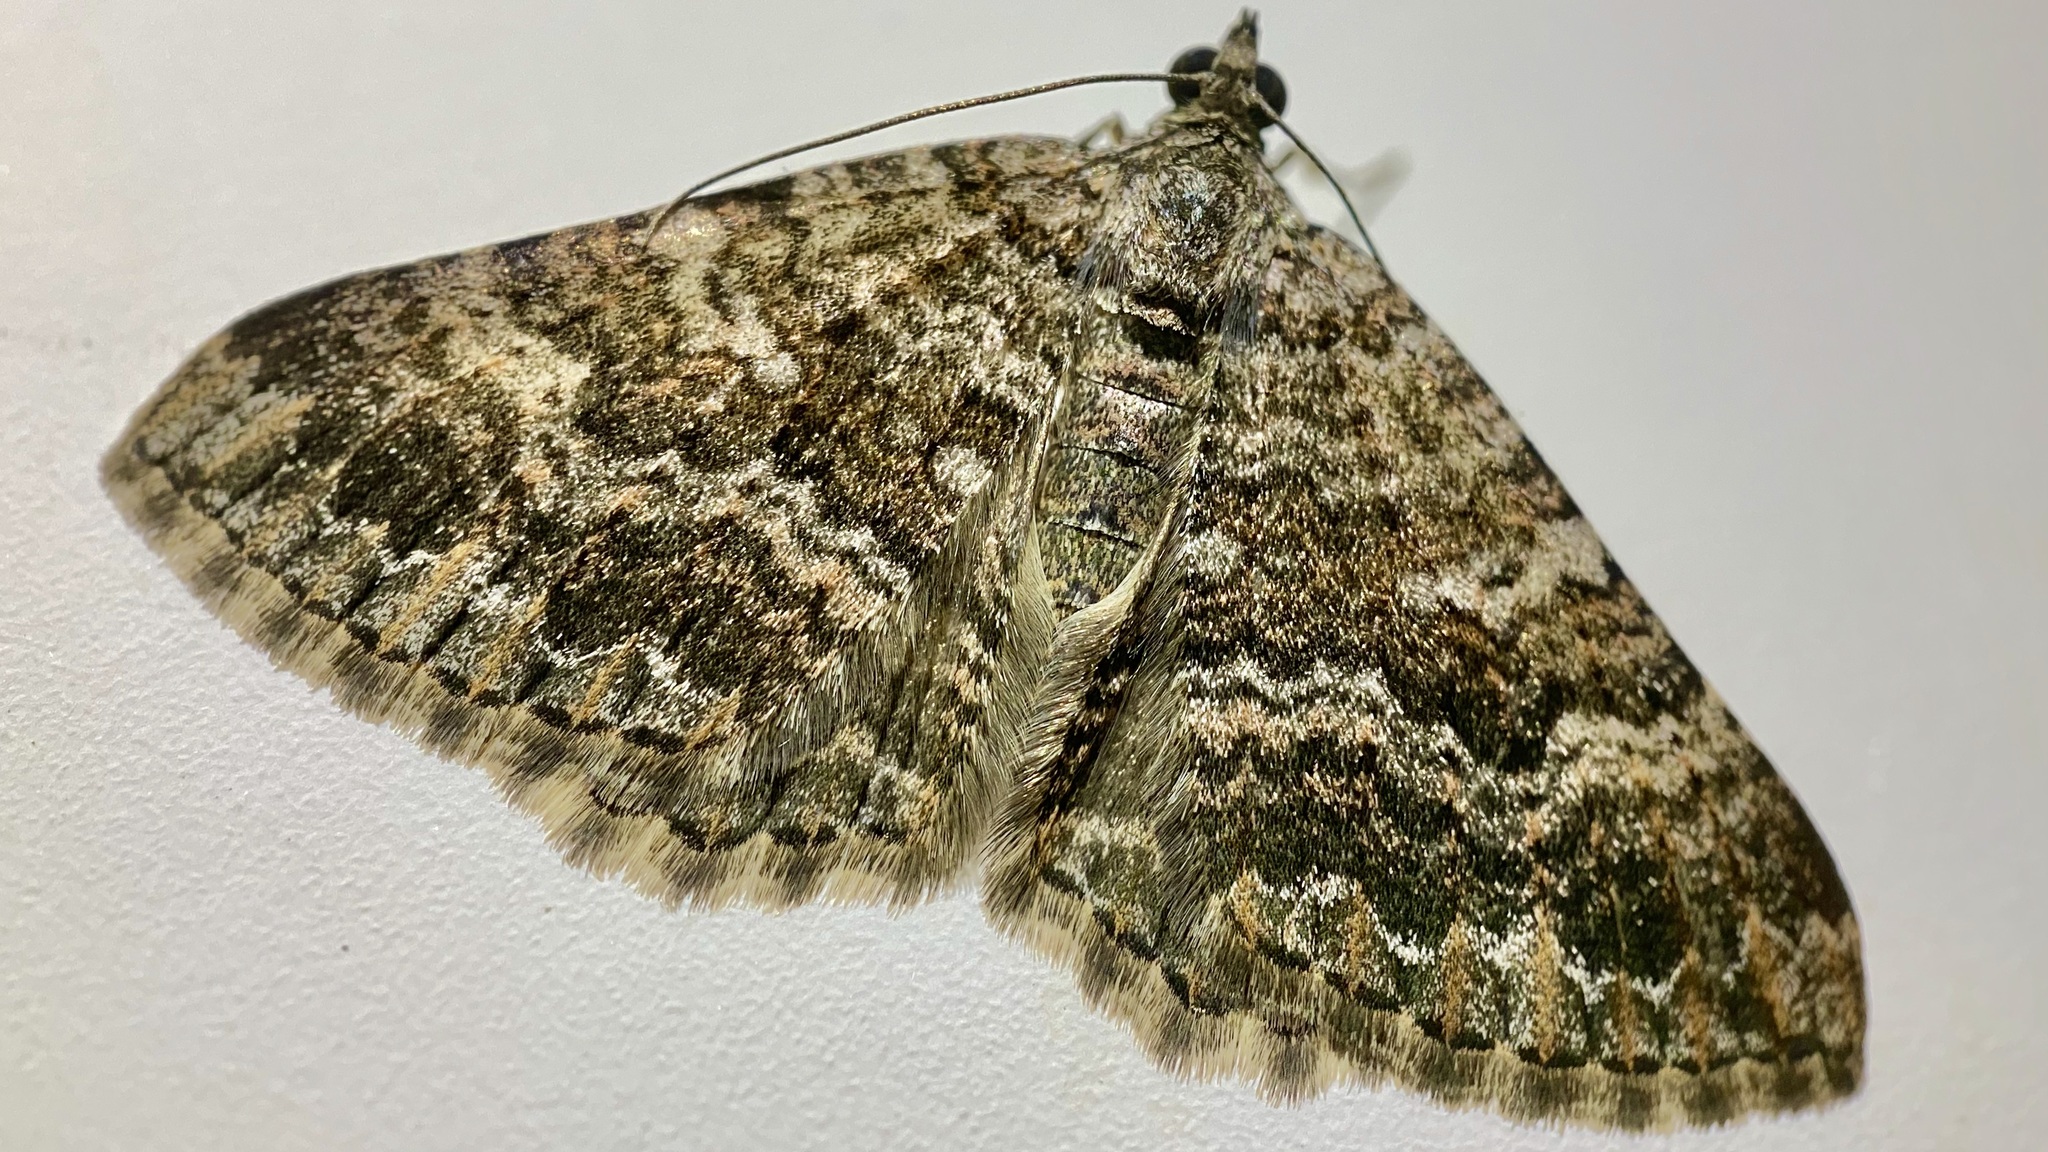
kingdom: Animalia
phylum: Arthropoda
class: Insecta
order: Lepidoptera
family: Geometridae
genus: Archirhoe
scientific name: Archirhoe neomexicana
